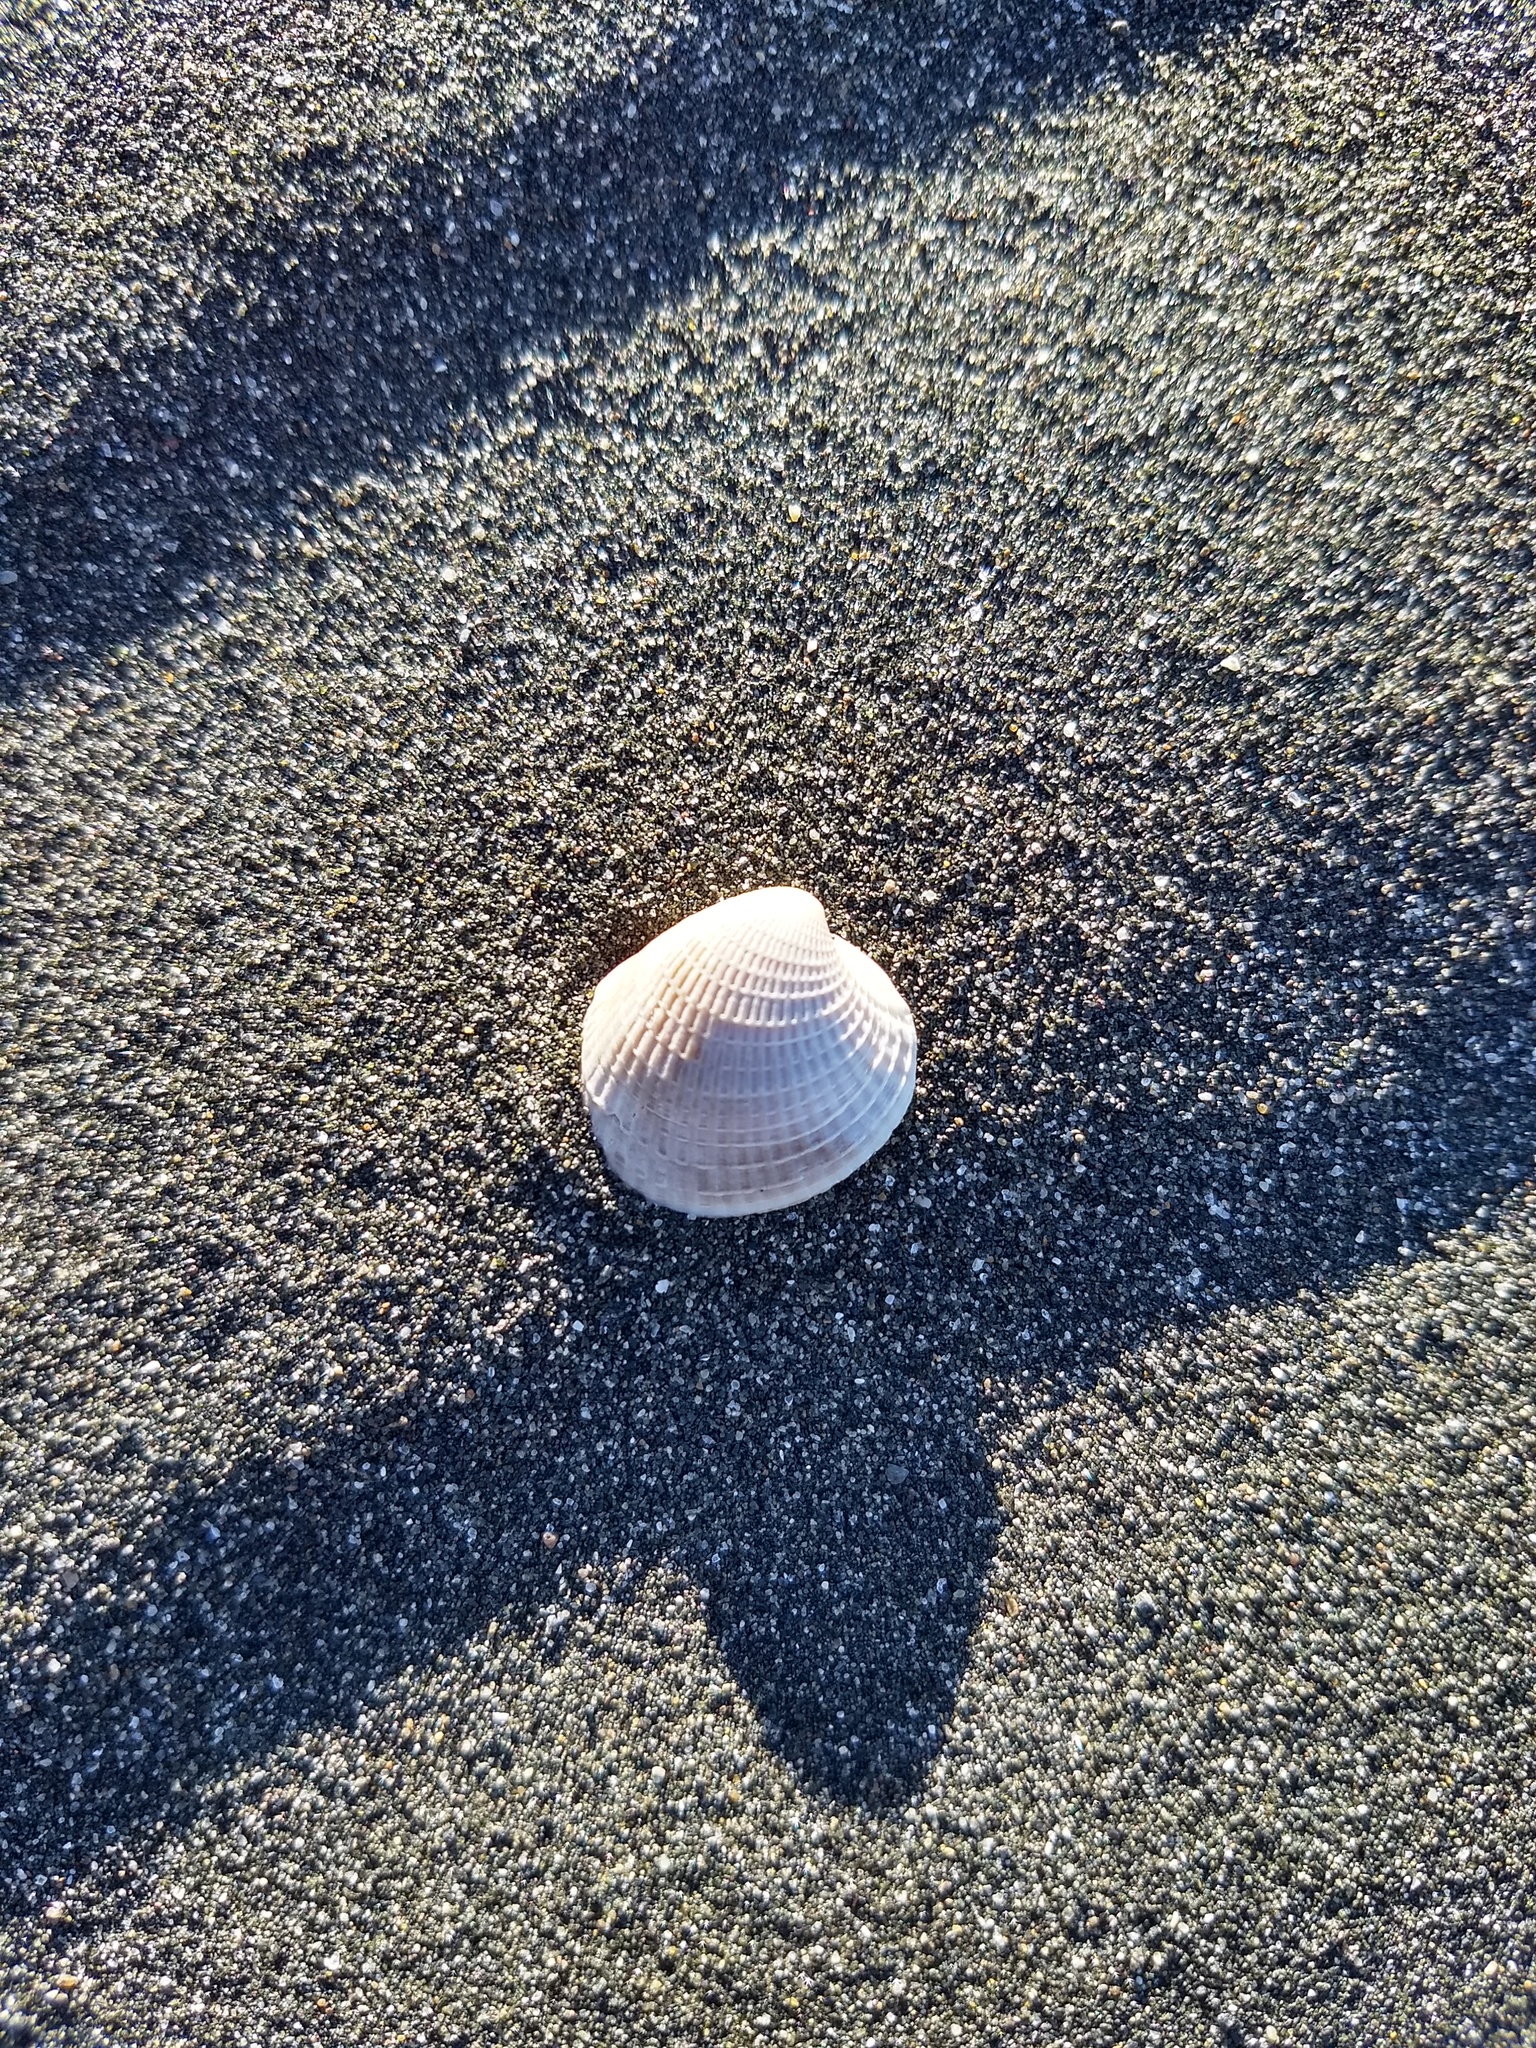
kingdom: Animalia
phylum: Mollusca
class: Bivalvia
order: Venerida
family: Veneridae
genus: Austrovenus
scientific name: Austrovenus stutchburyi
